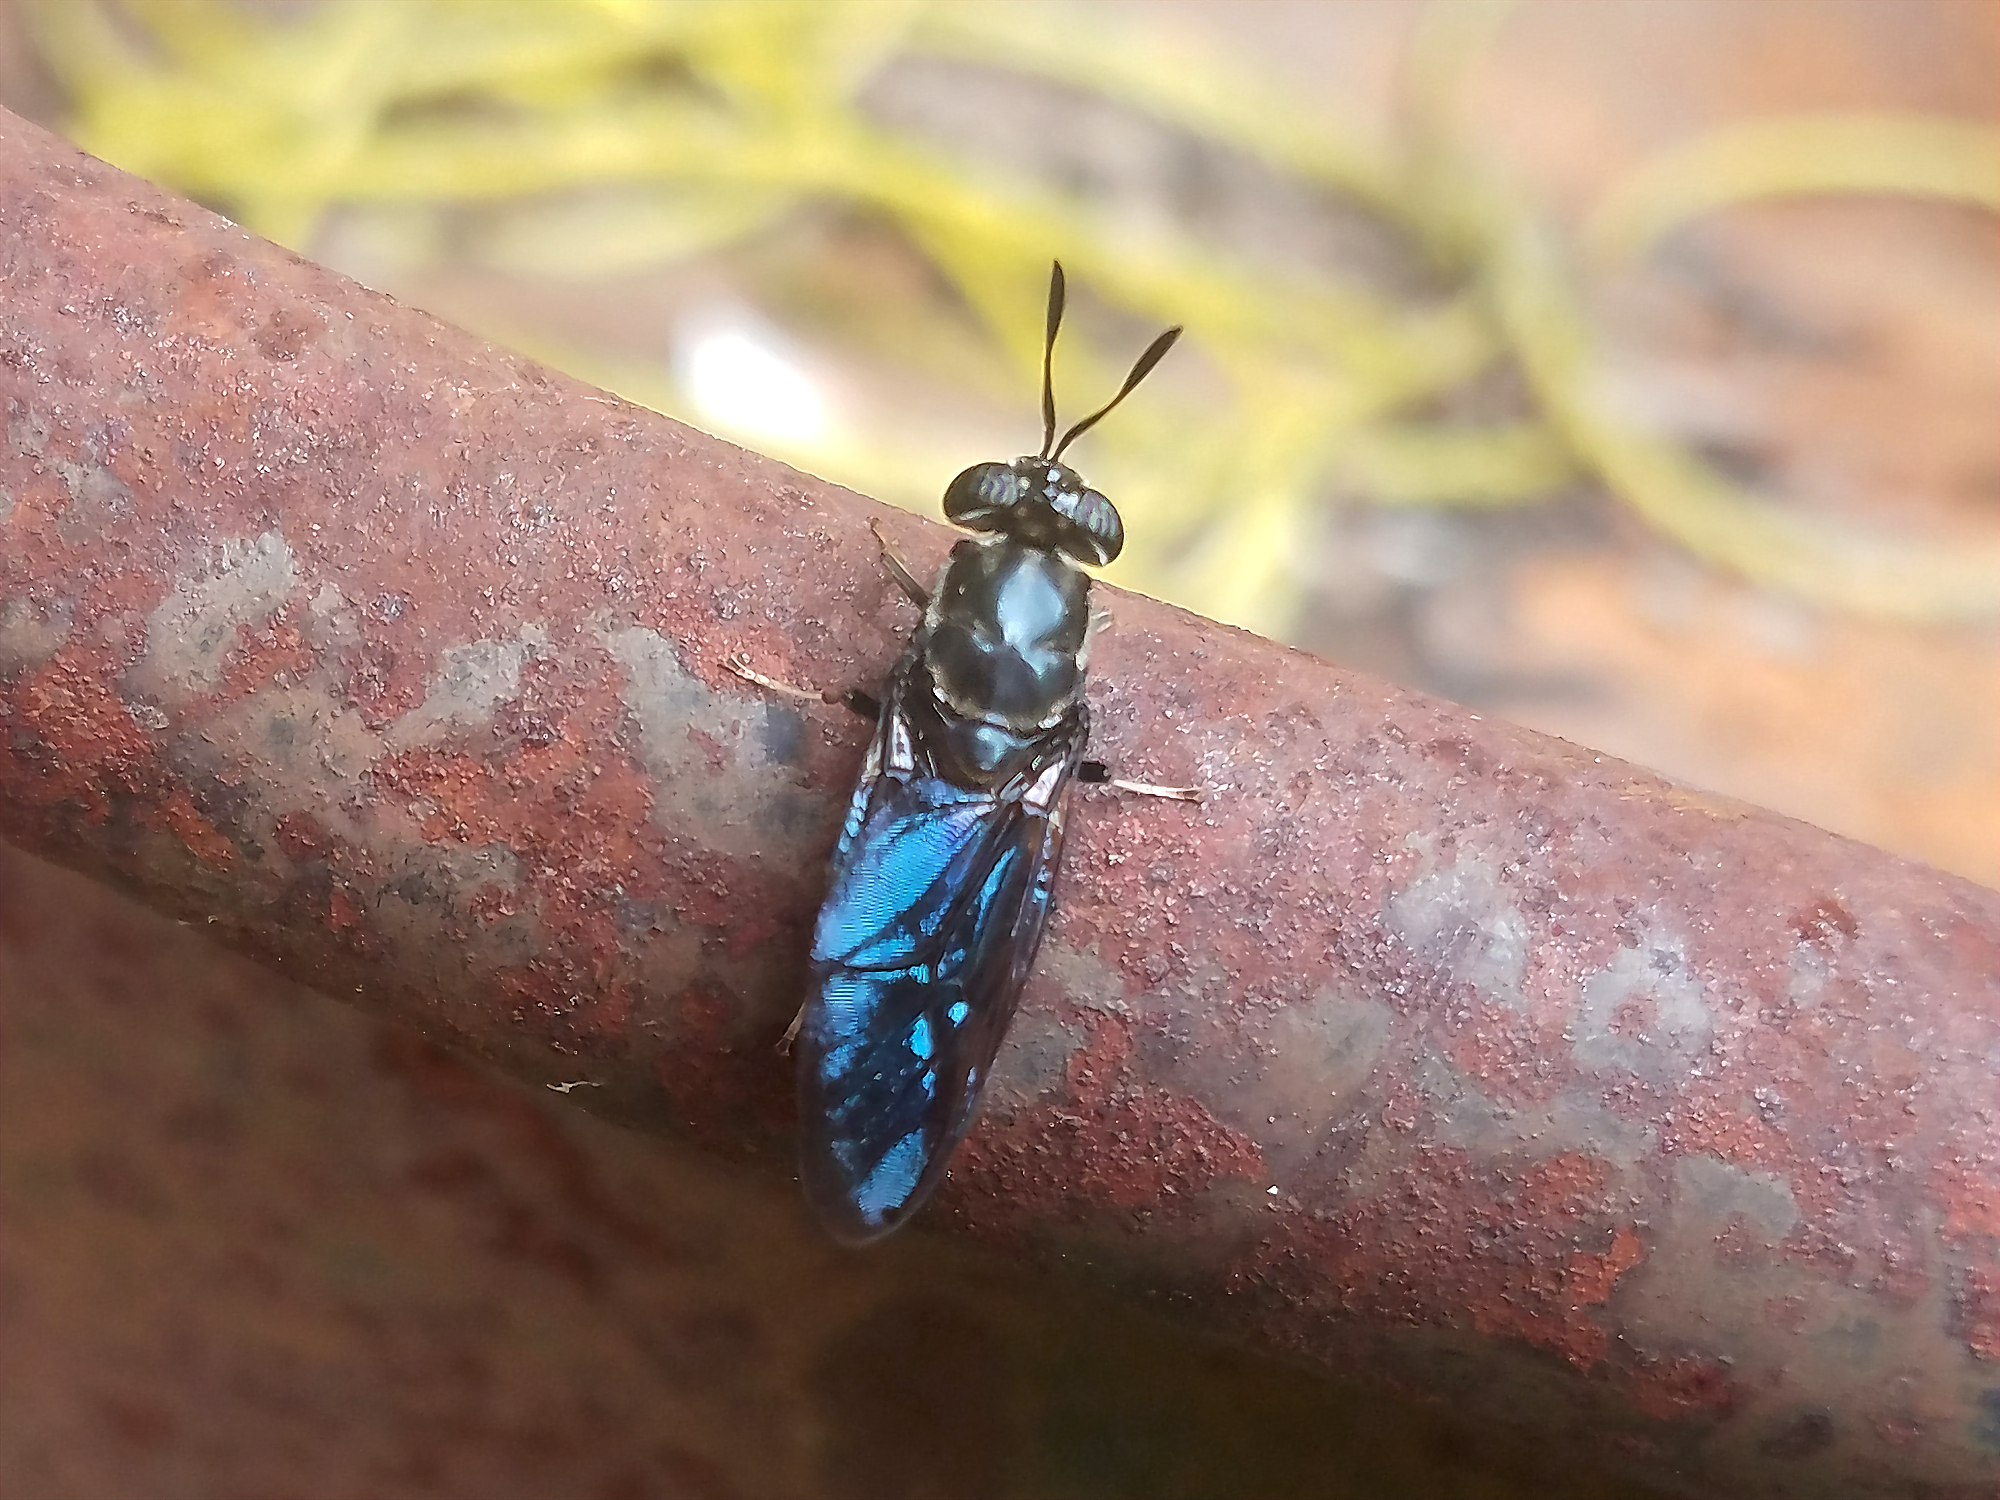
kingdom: Animalia
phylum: Arthropoda
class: Insecta
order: Diptera
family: Stratiomyidae
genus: Hermetia
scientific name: Hermetia illucens
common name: Black soldier fly
